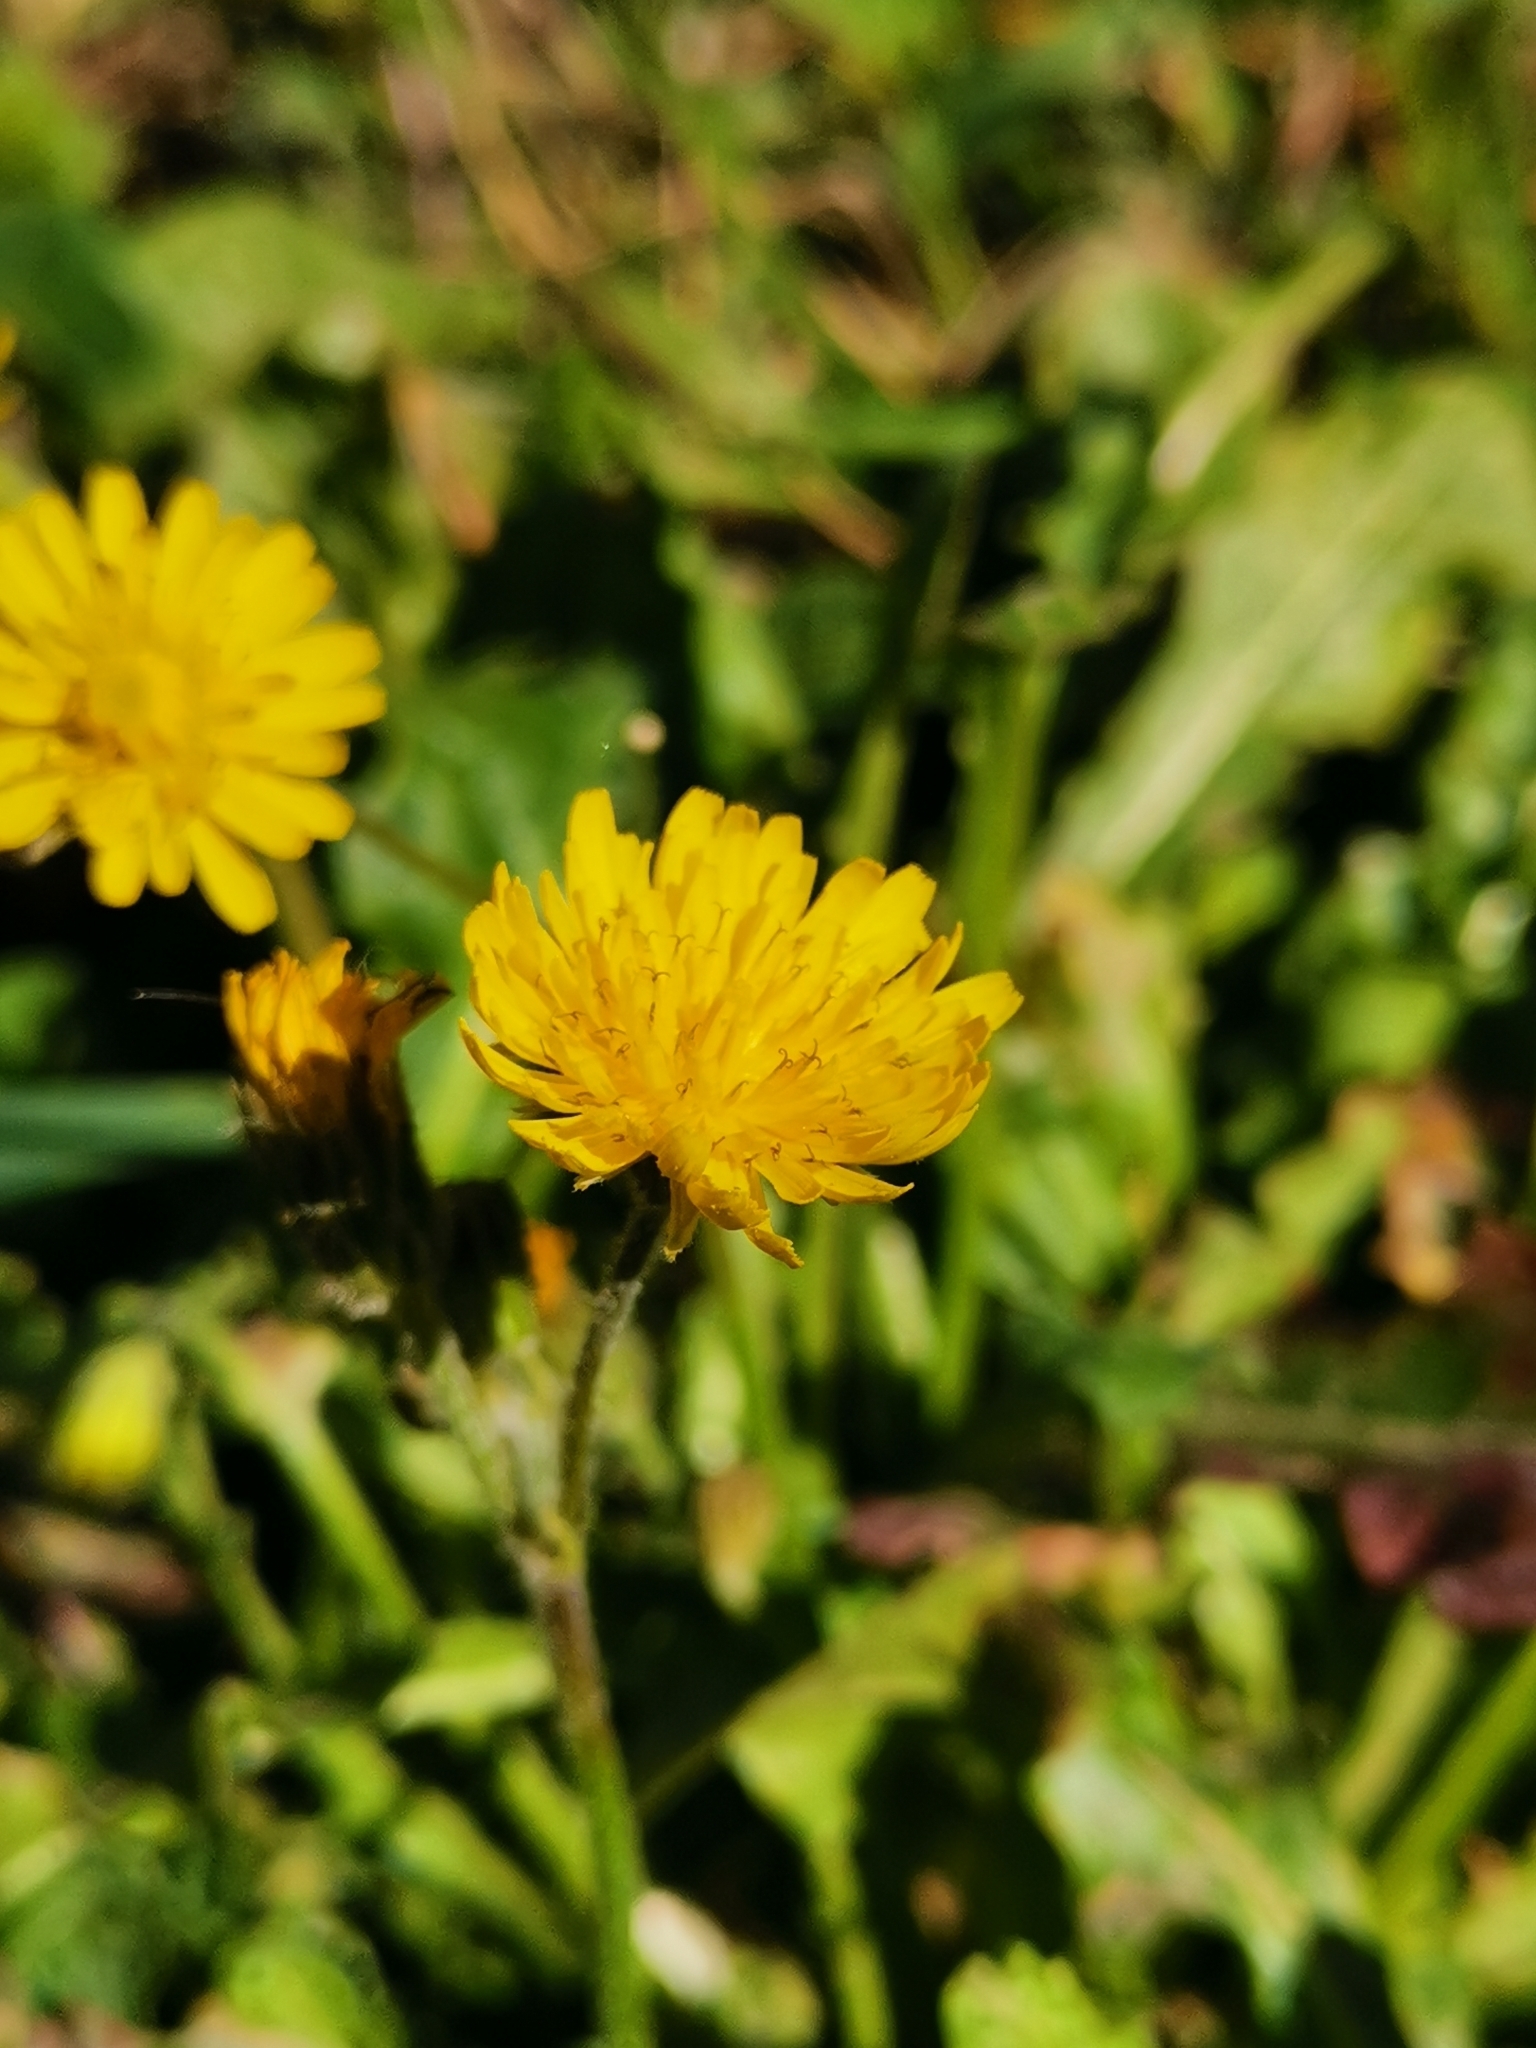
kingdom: Plantae
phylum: Tracheophyta
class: Magnoliopsida
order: Asterales
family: Asteraceae
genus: Crepis
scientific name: Crepis sancta
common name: Hawk's-beard
